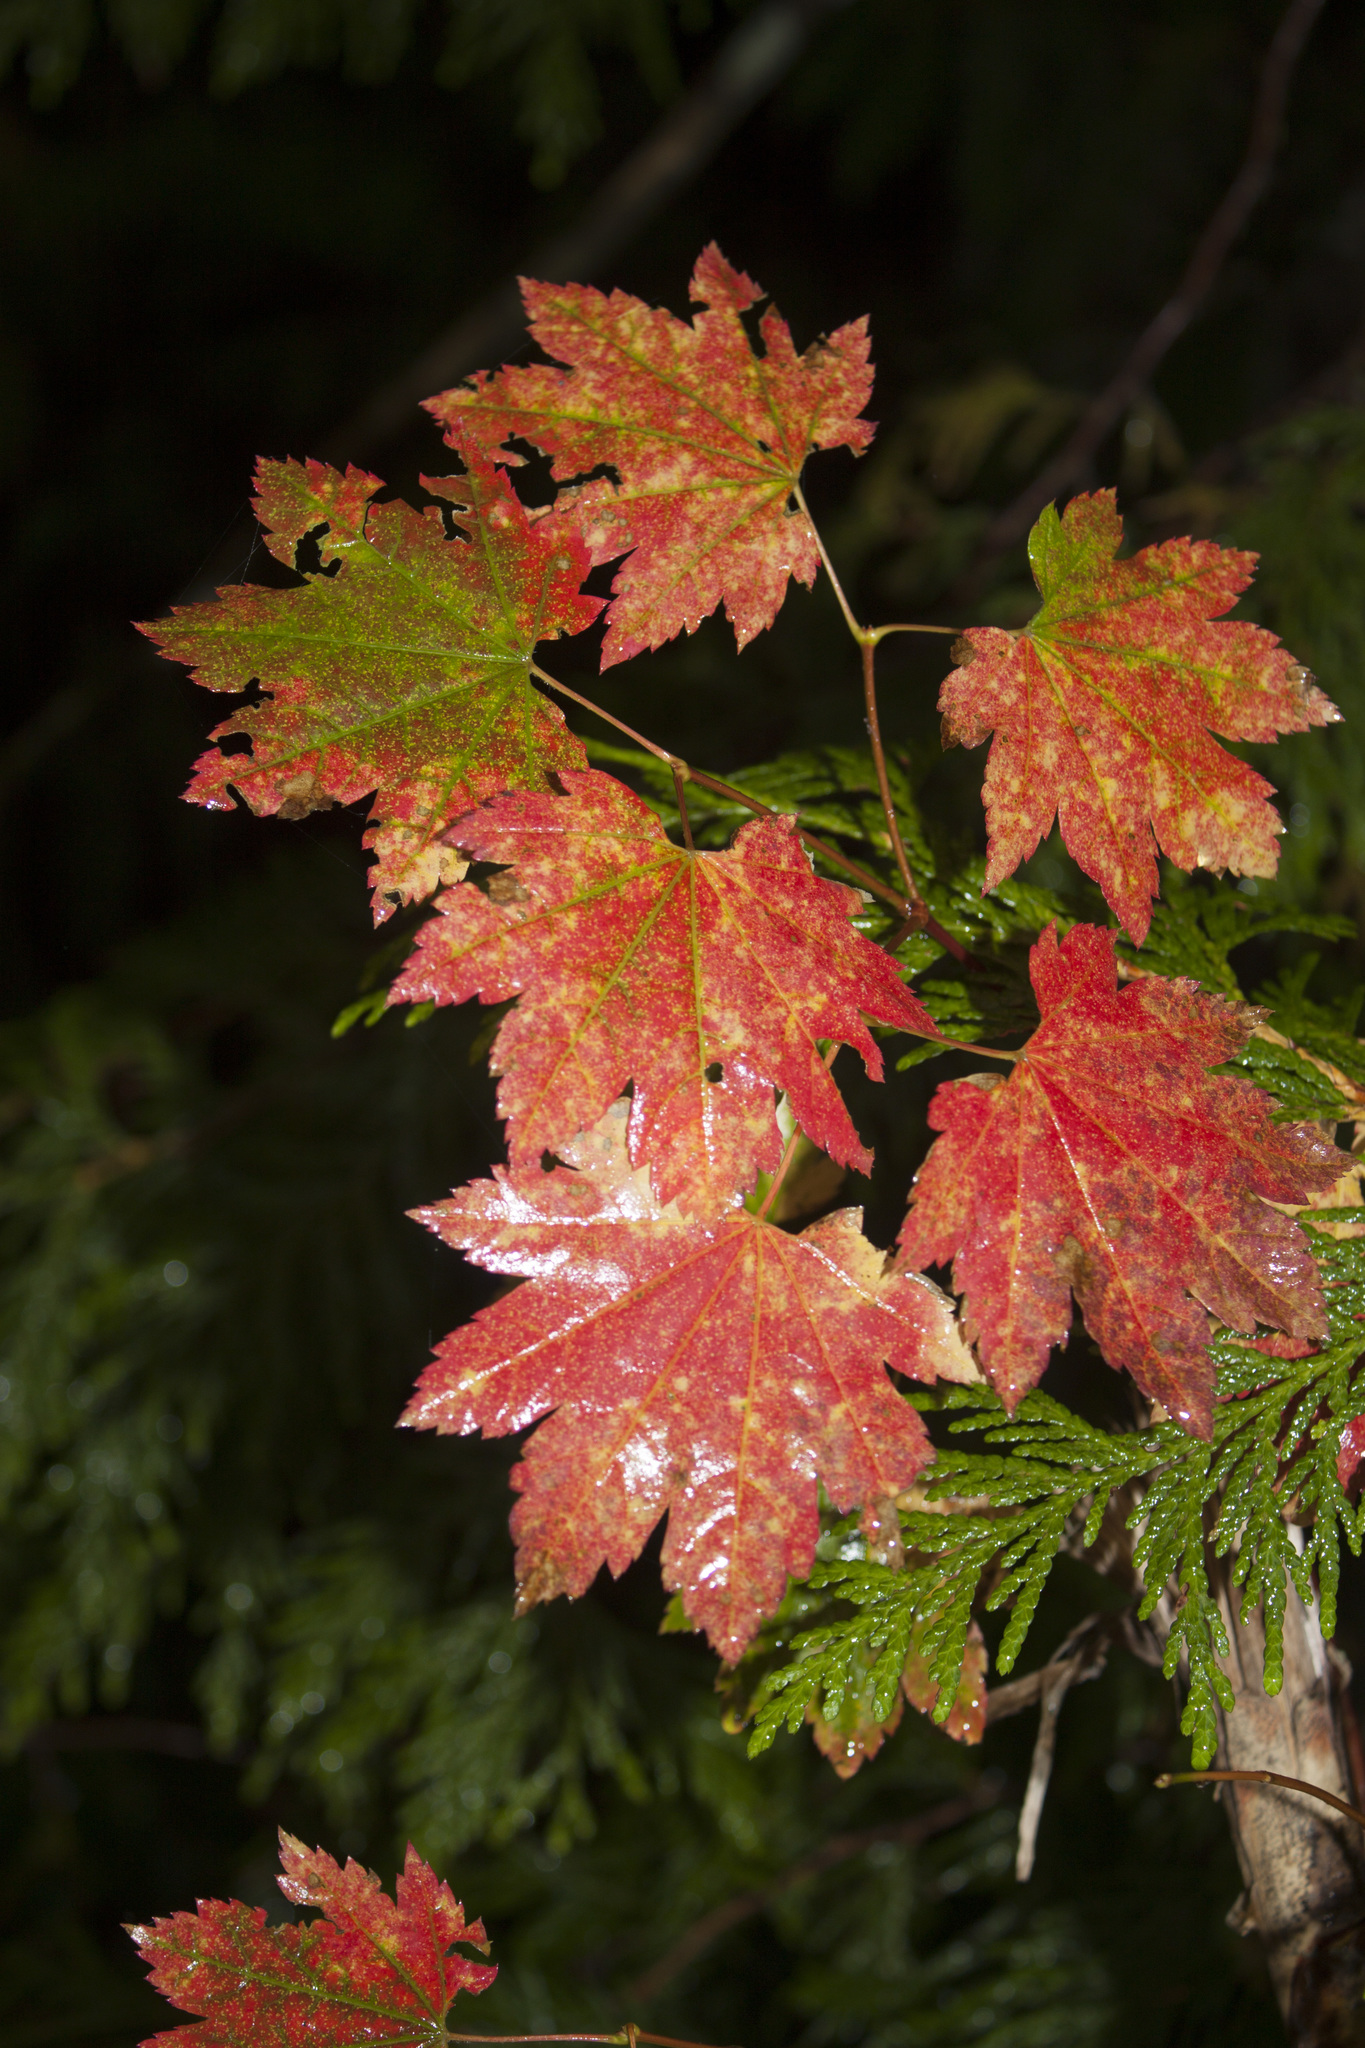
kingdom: Plantae
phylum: Tracheophyta
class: Magnoliopsida
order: Sapindales
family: Sapindaceae
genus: Acer
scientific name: Acer circinatum
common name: Vine maple
